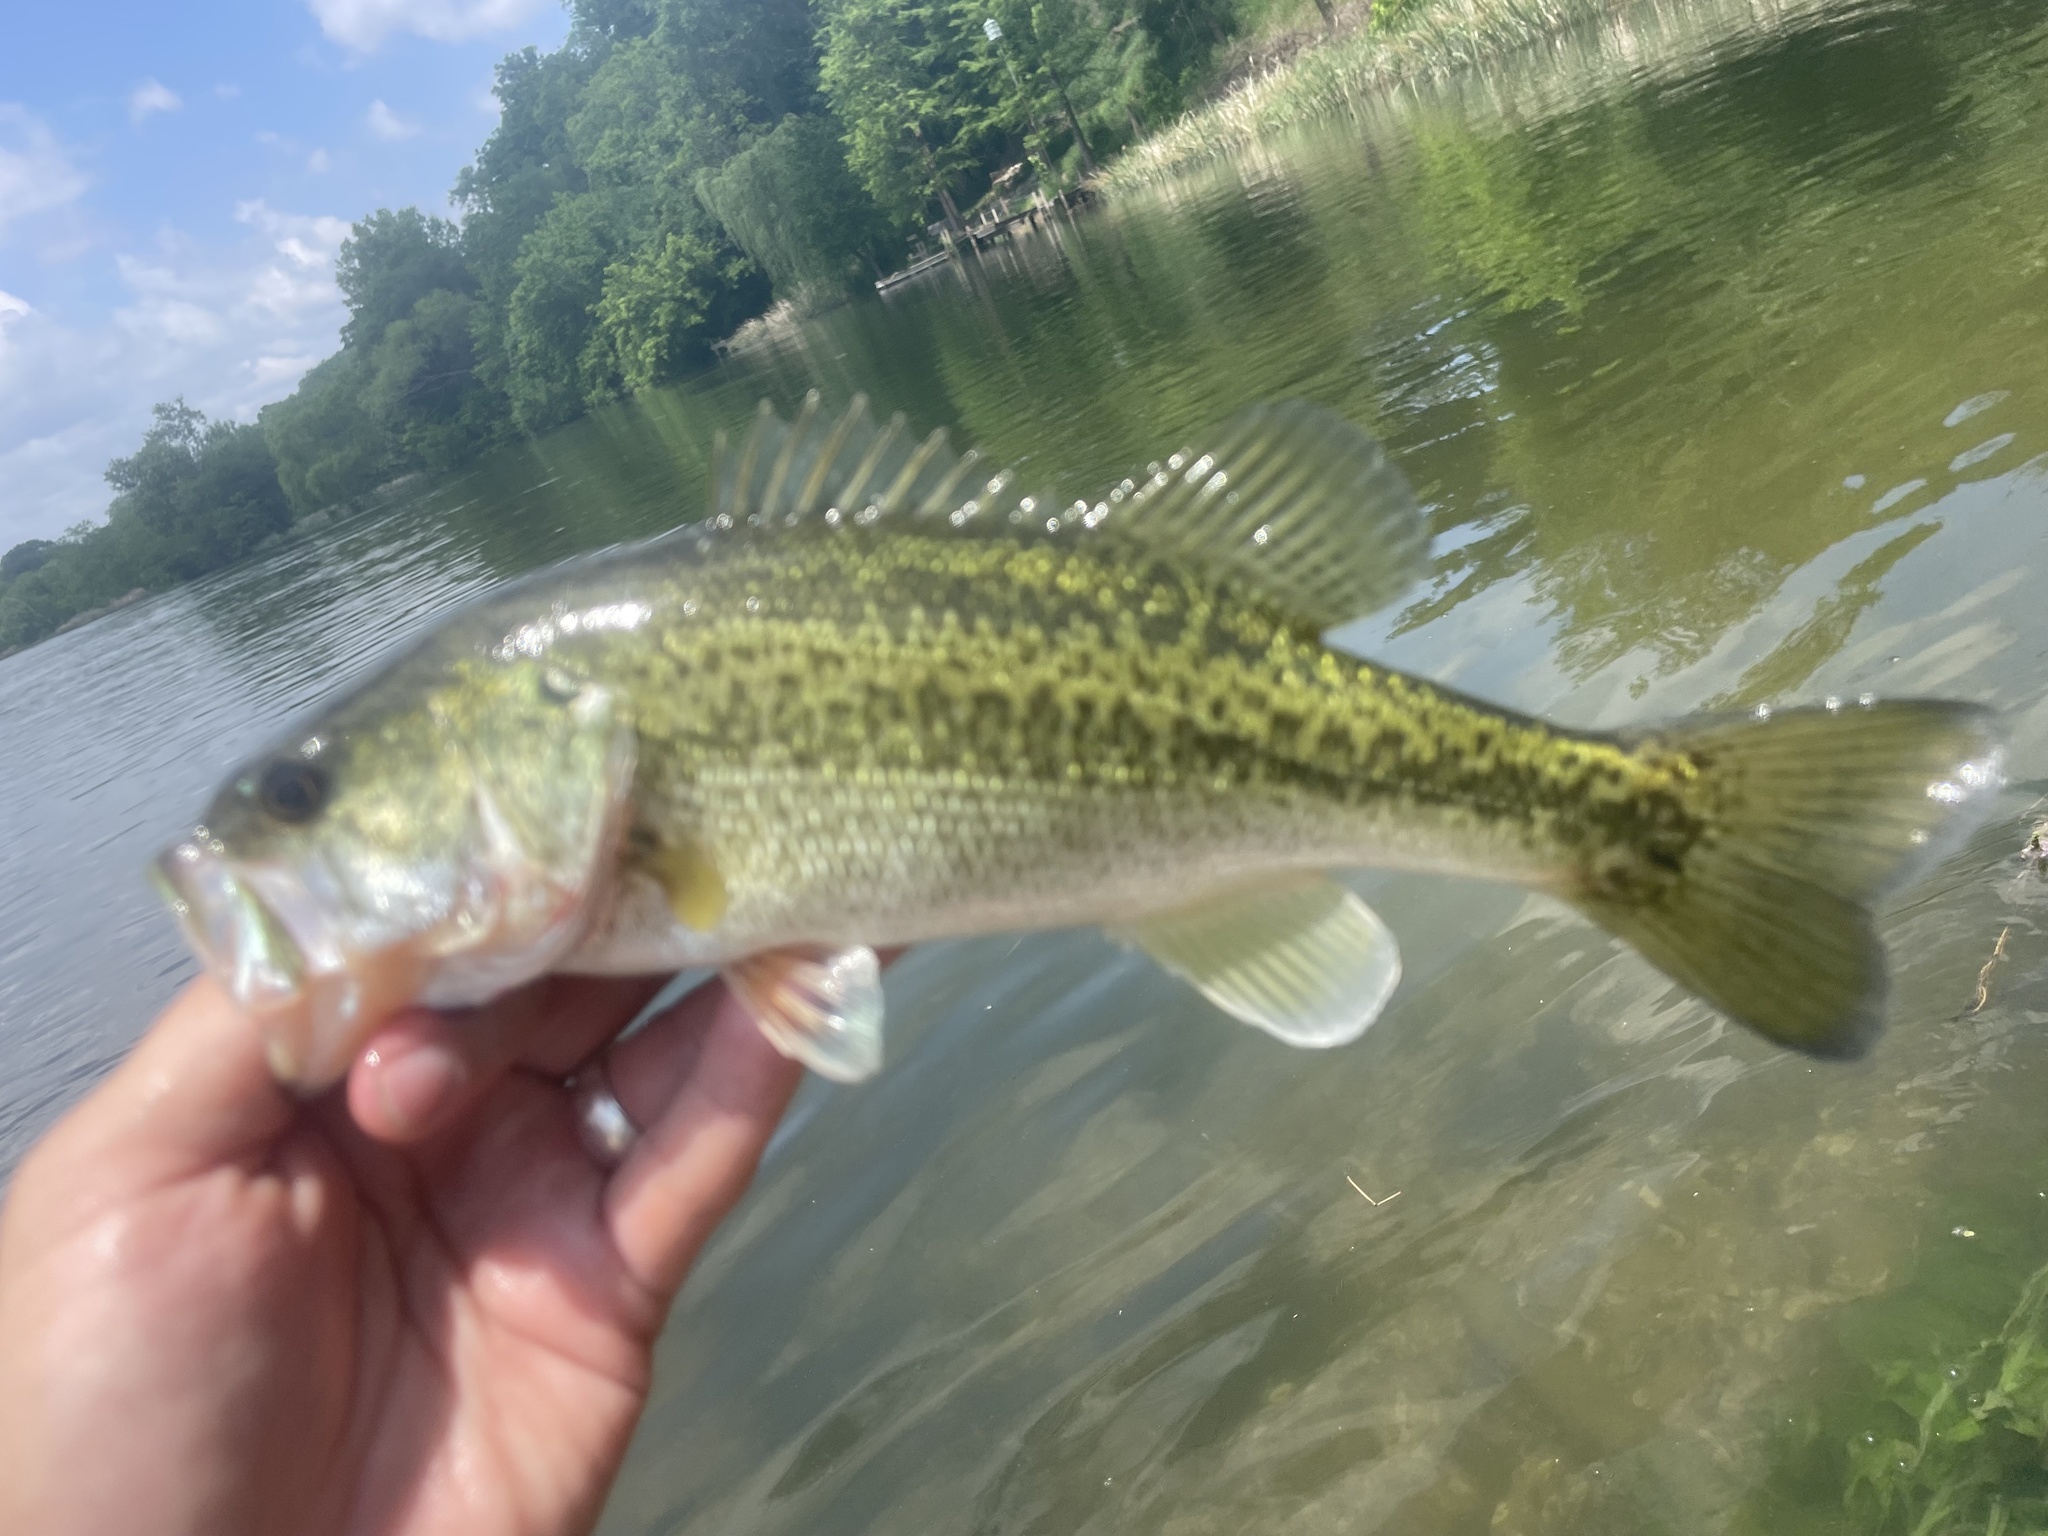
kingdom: Animalia
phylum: Chordata
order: Perciformes
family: Centrarchidae
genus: Micropterus
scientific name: Micropterus
